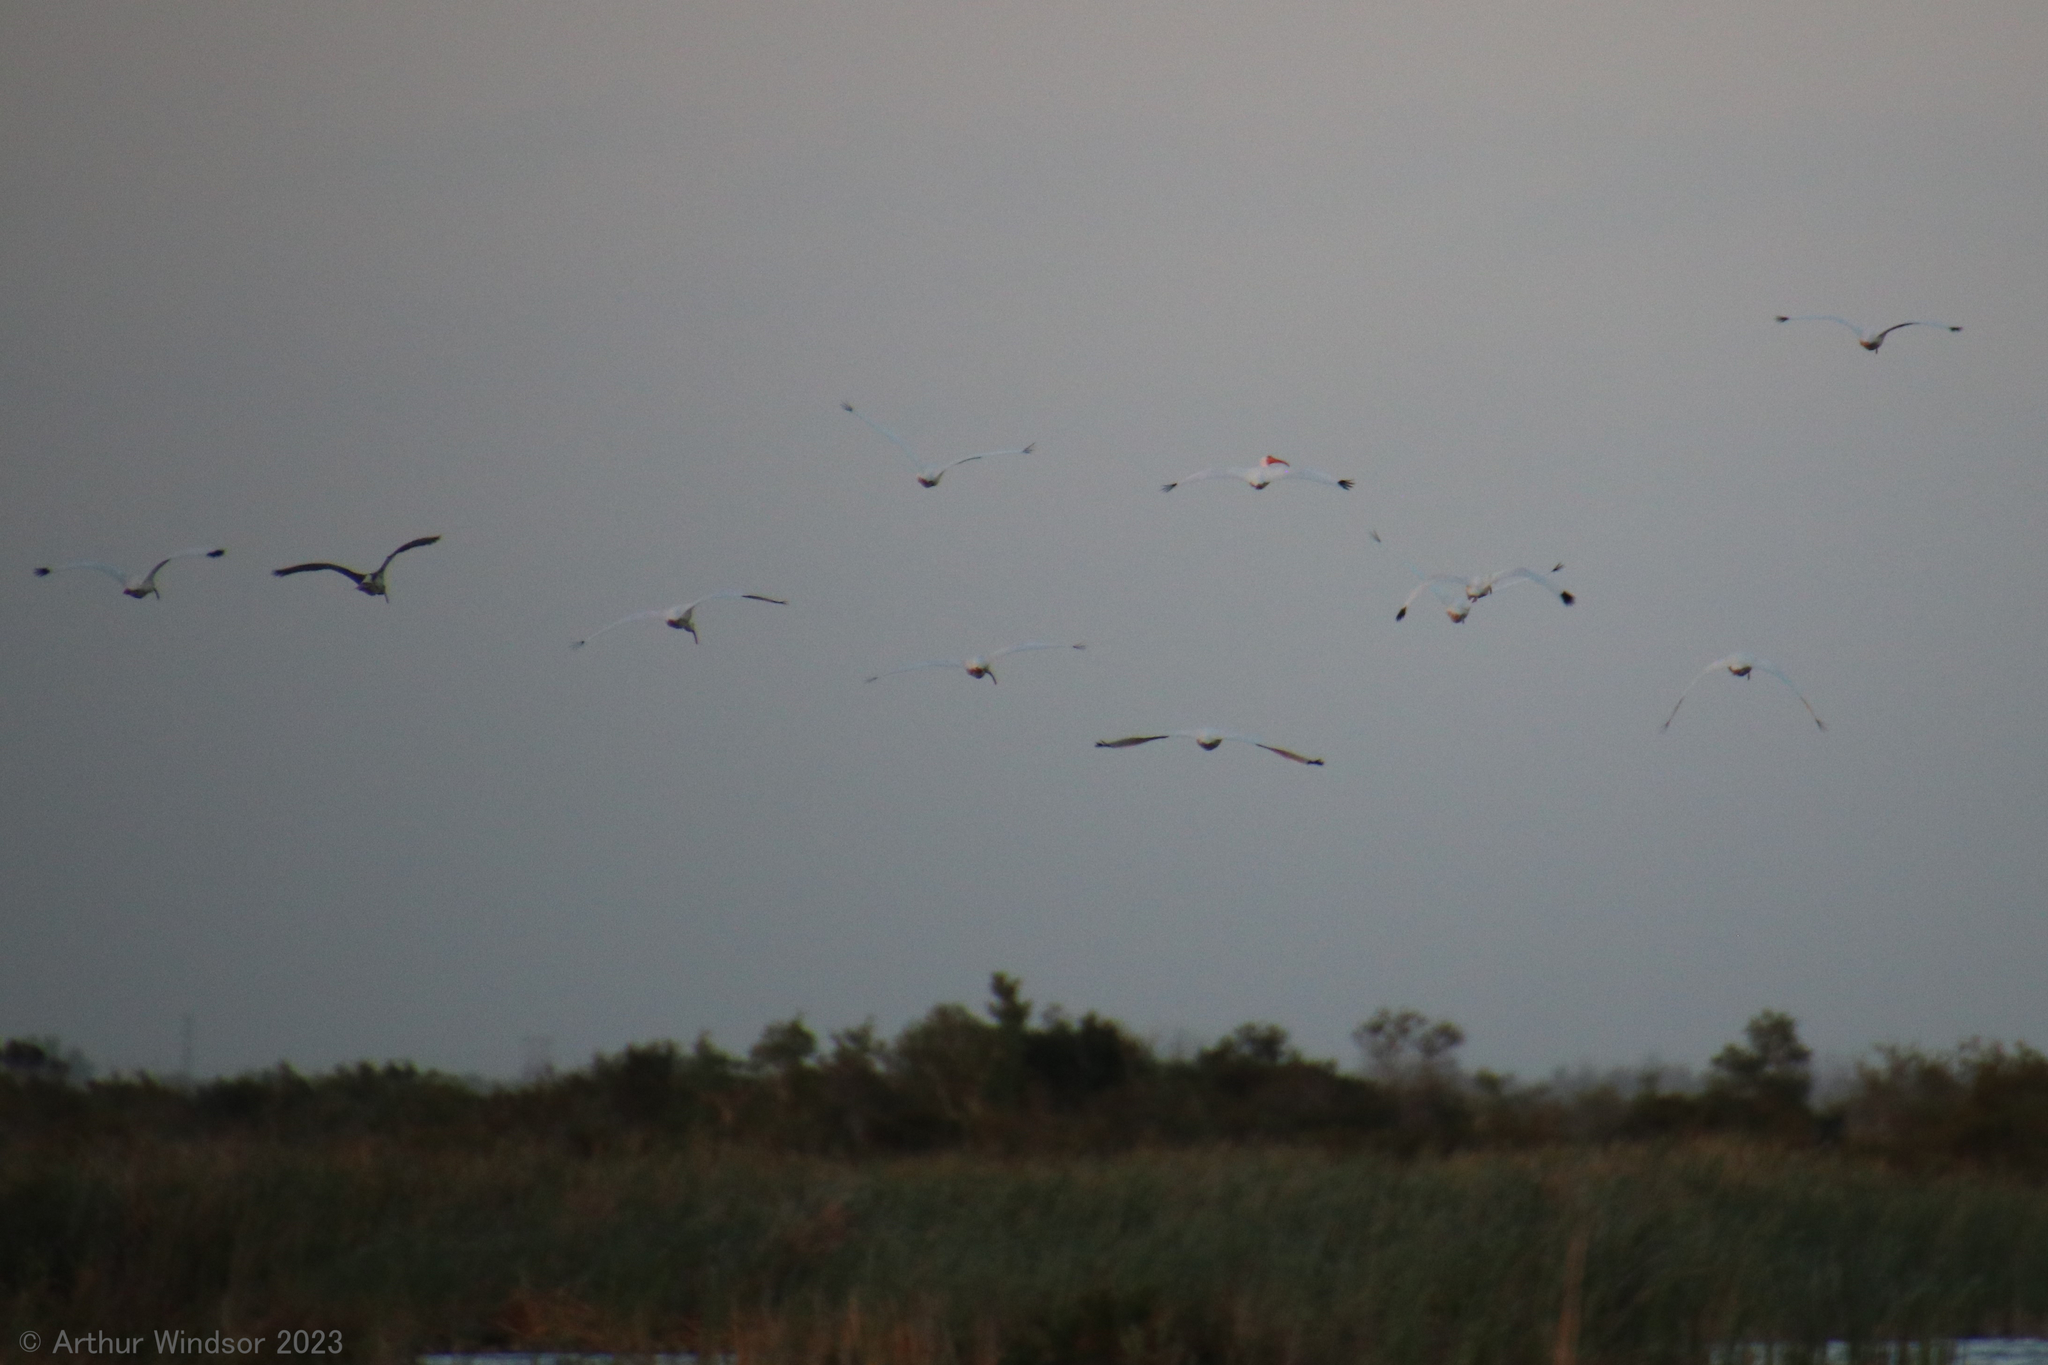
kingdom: Animalia
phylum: Chordata
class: Aves
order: Pelecaniformes
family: Threskiornithidae
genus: Eudocimus
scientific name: Eudocimus albus
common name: White ibis
